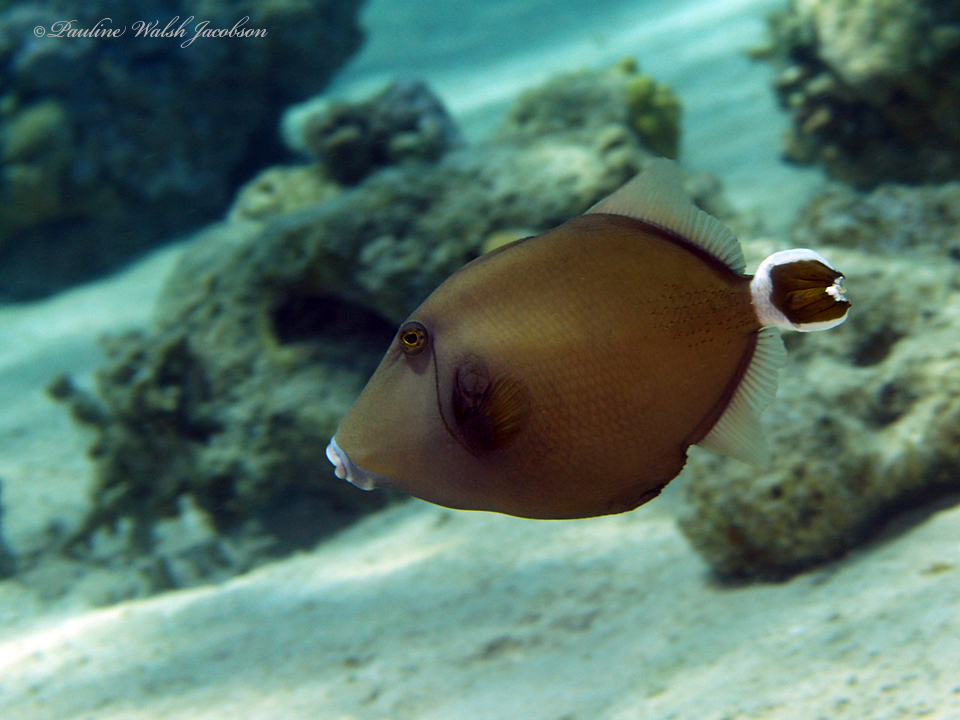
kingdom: Animalia
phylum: Chordata
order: Tetraodontiformes
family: Balistidae
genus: Sufflamen
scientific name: Sufflamen albicaudatum
